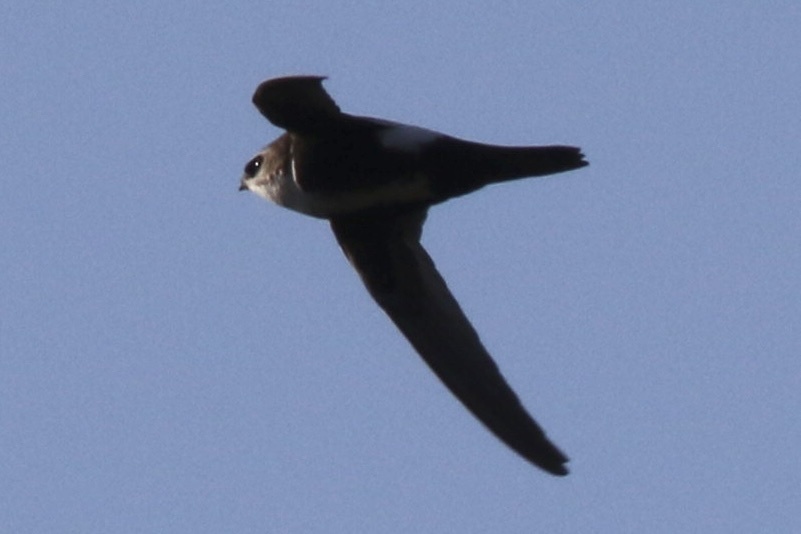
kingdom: Animalia
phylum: Chordata
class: Aves
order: Apodiformes
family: Apodidae
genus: Aeronautes
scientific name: Aeronautes saxatalis
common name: White-throated swift
